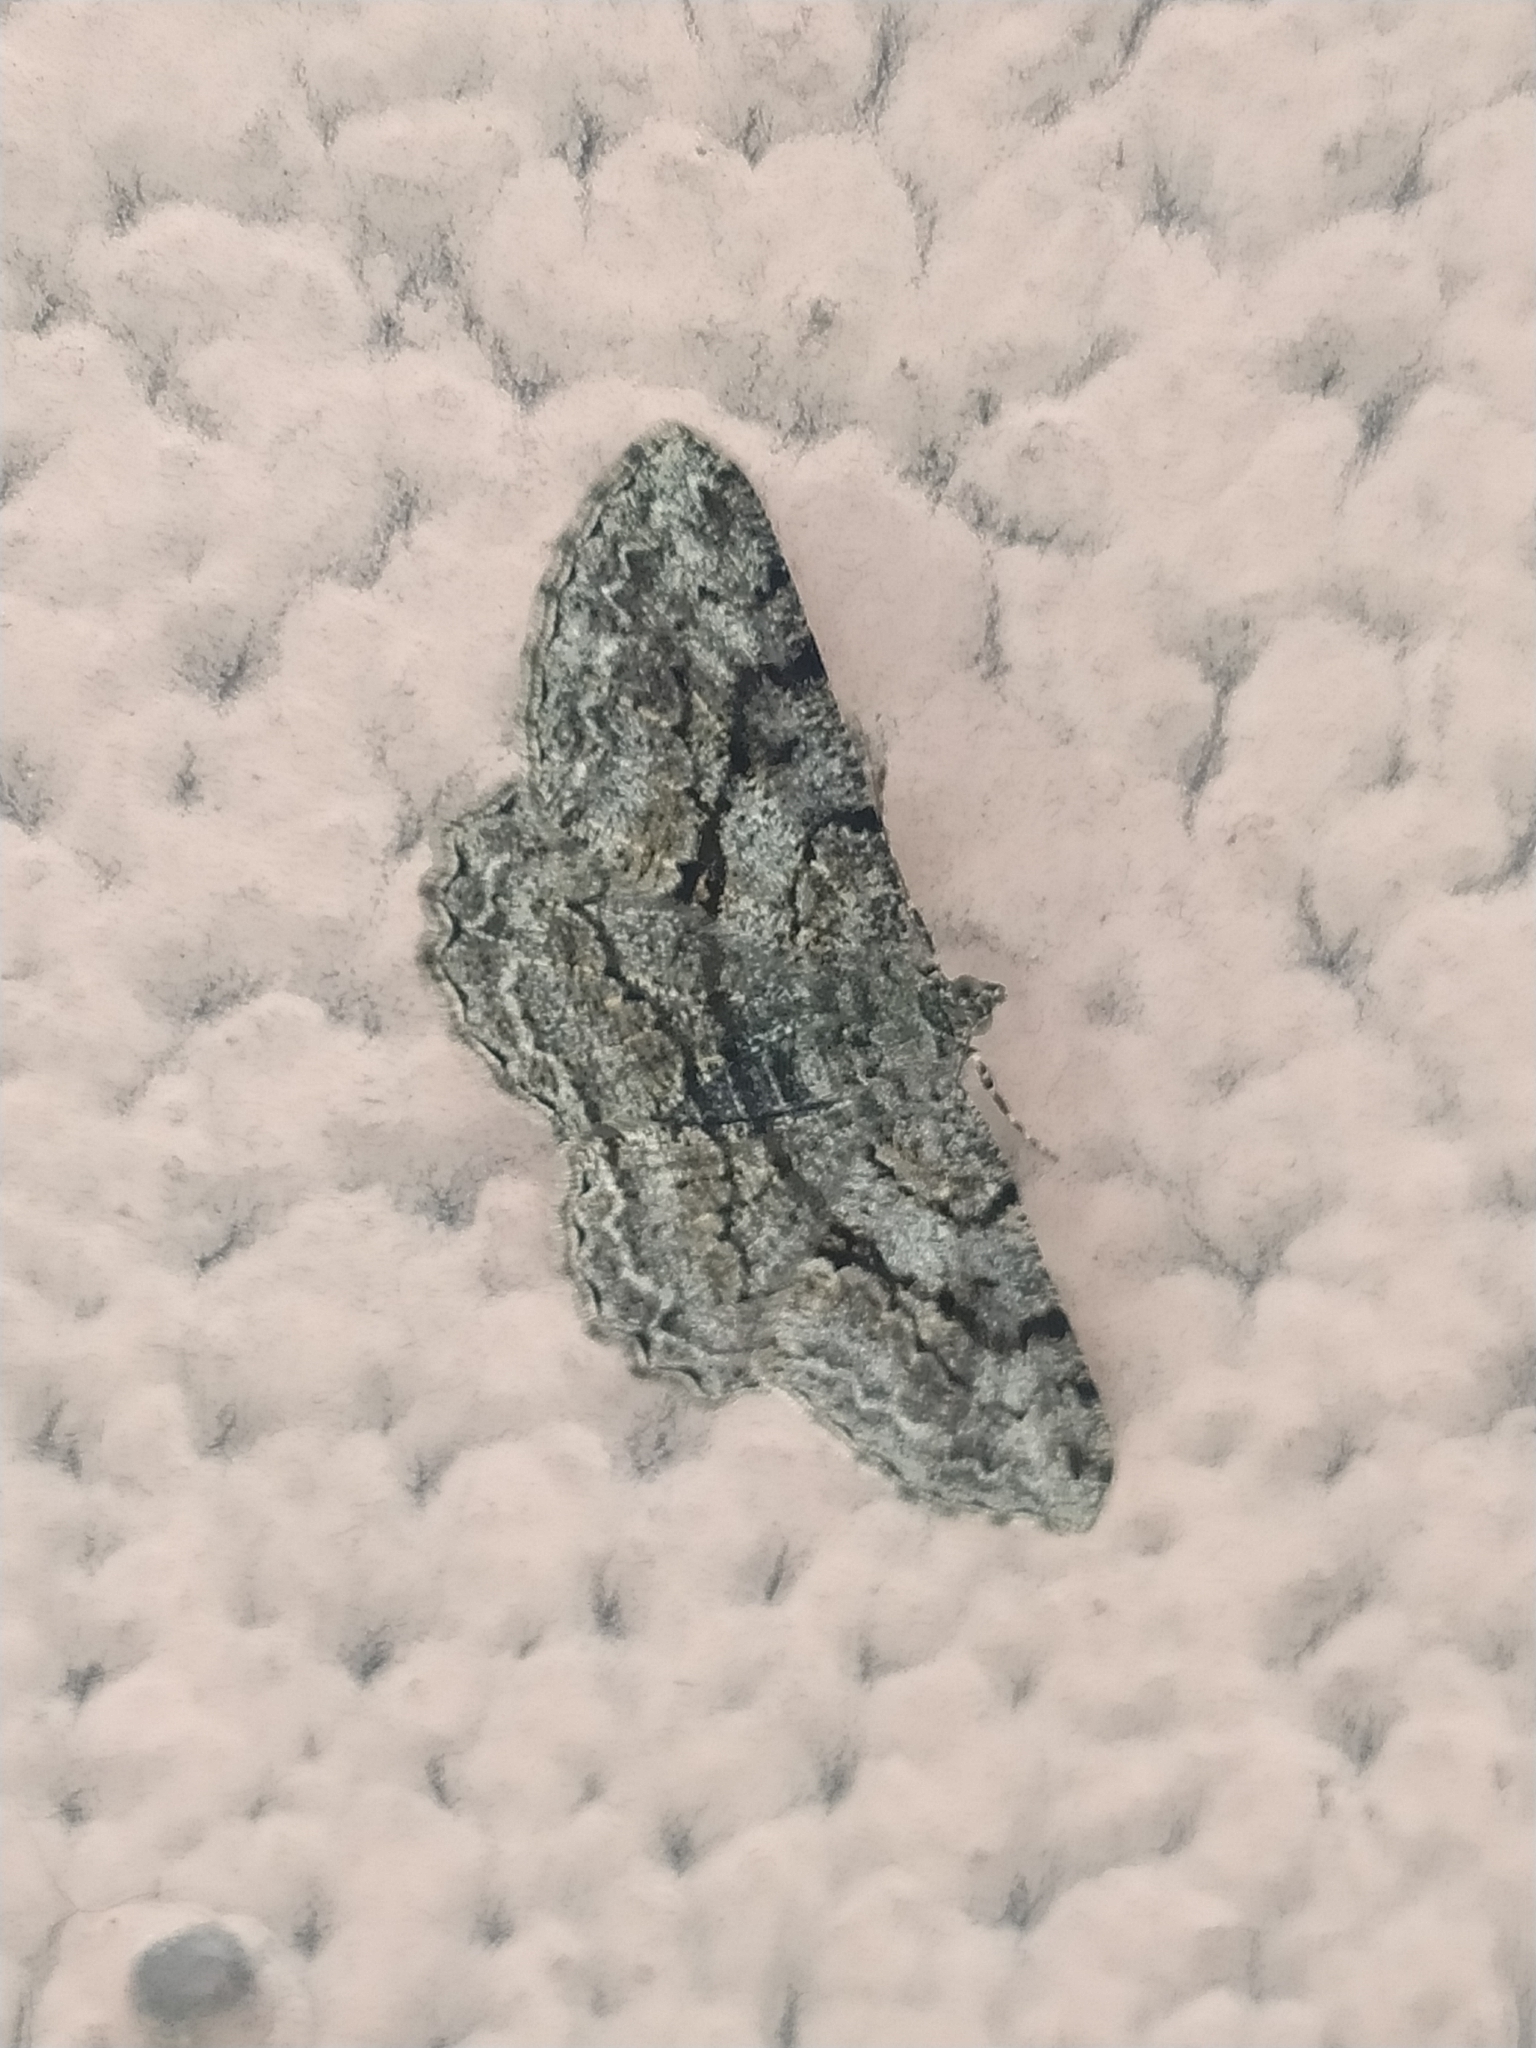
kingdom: Animalia
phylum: Arthropoda
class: Insecta
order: Lepidoptera
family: Geometridae
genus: Peribatodes
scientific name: Peribatodes rhomboidaria
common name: Willow beauty
